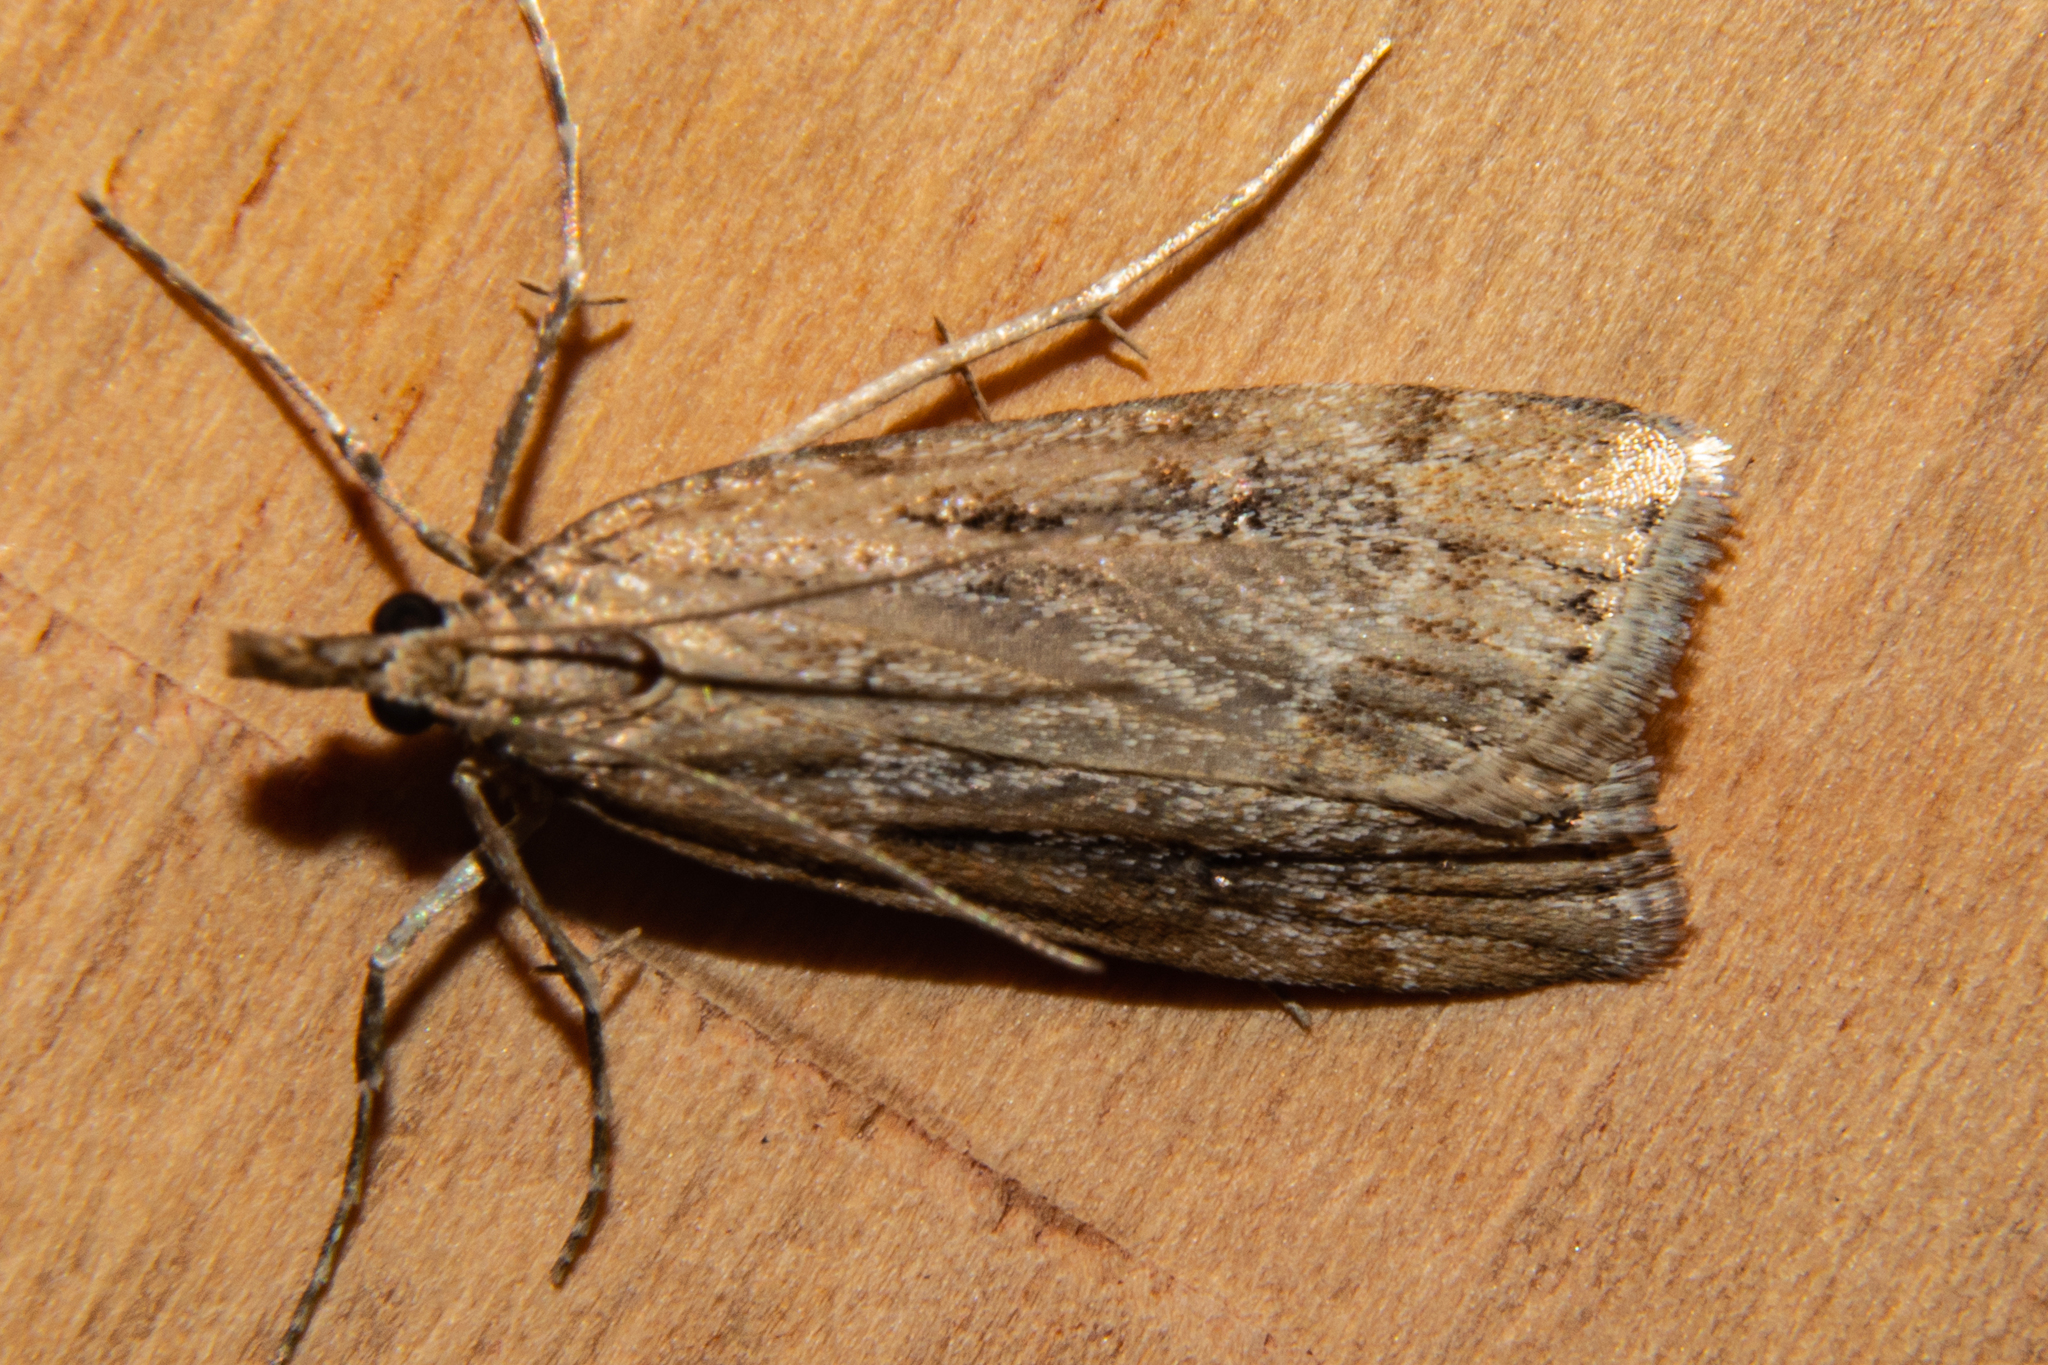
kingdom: Animalia
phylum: Arthropoda
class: Insecta
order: Lepidoptera
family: Crambidae
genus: Eudonia
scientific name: Eudonia chalara
